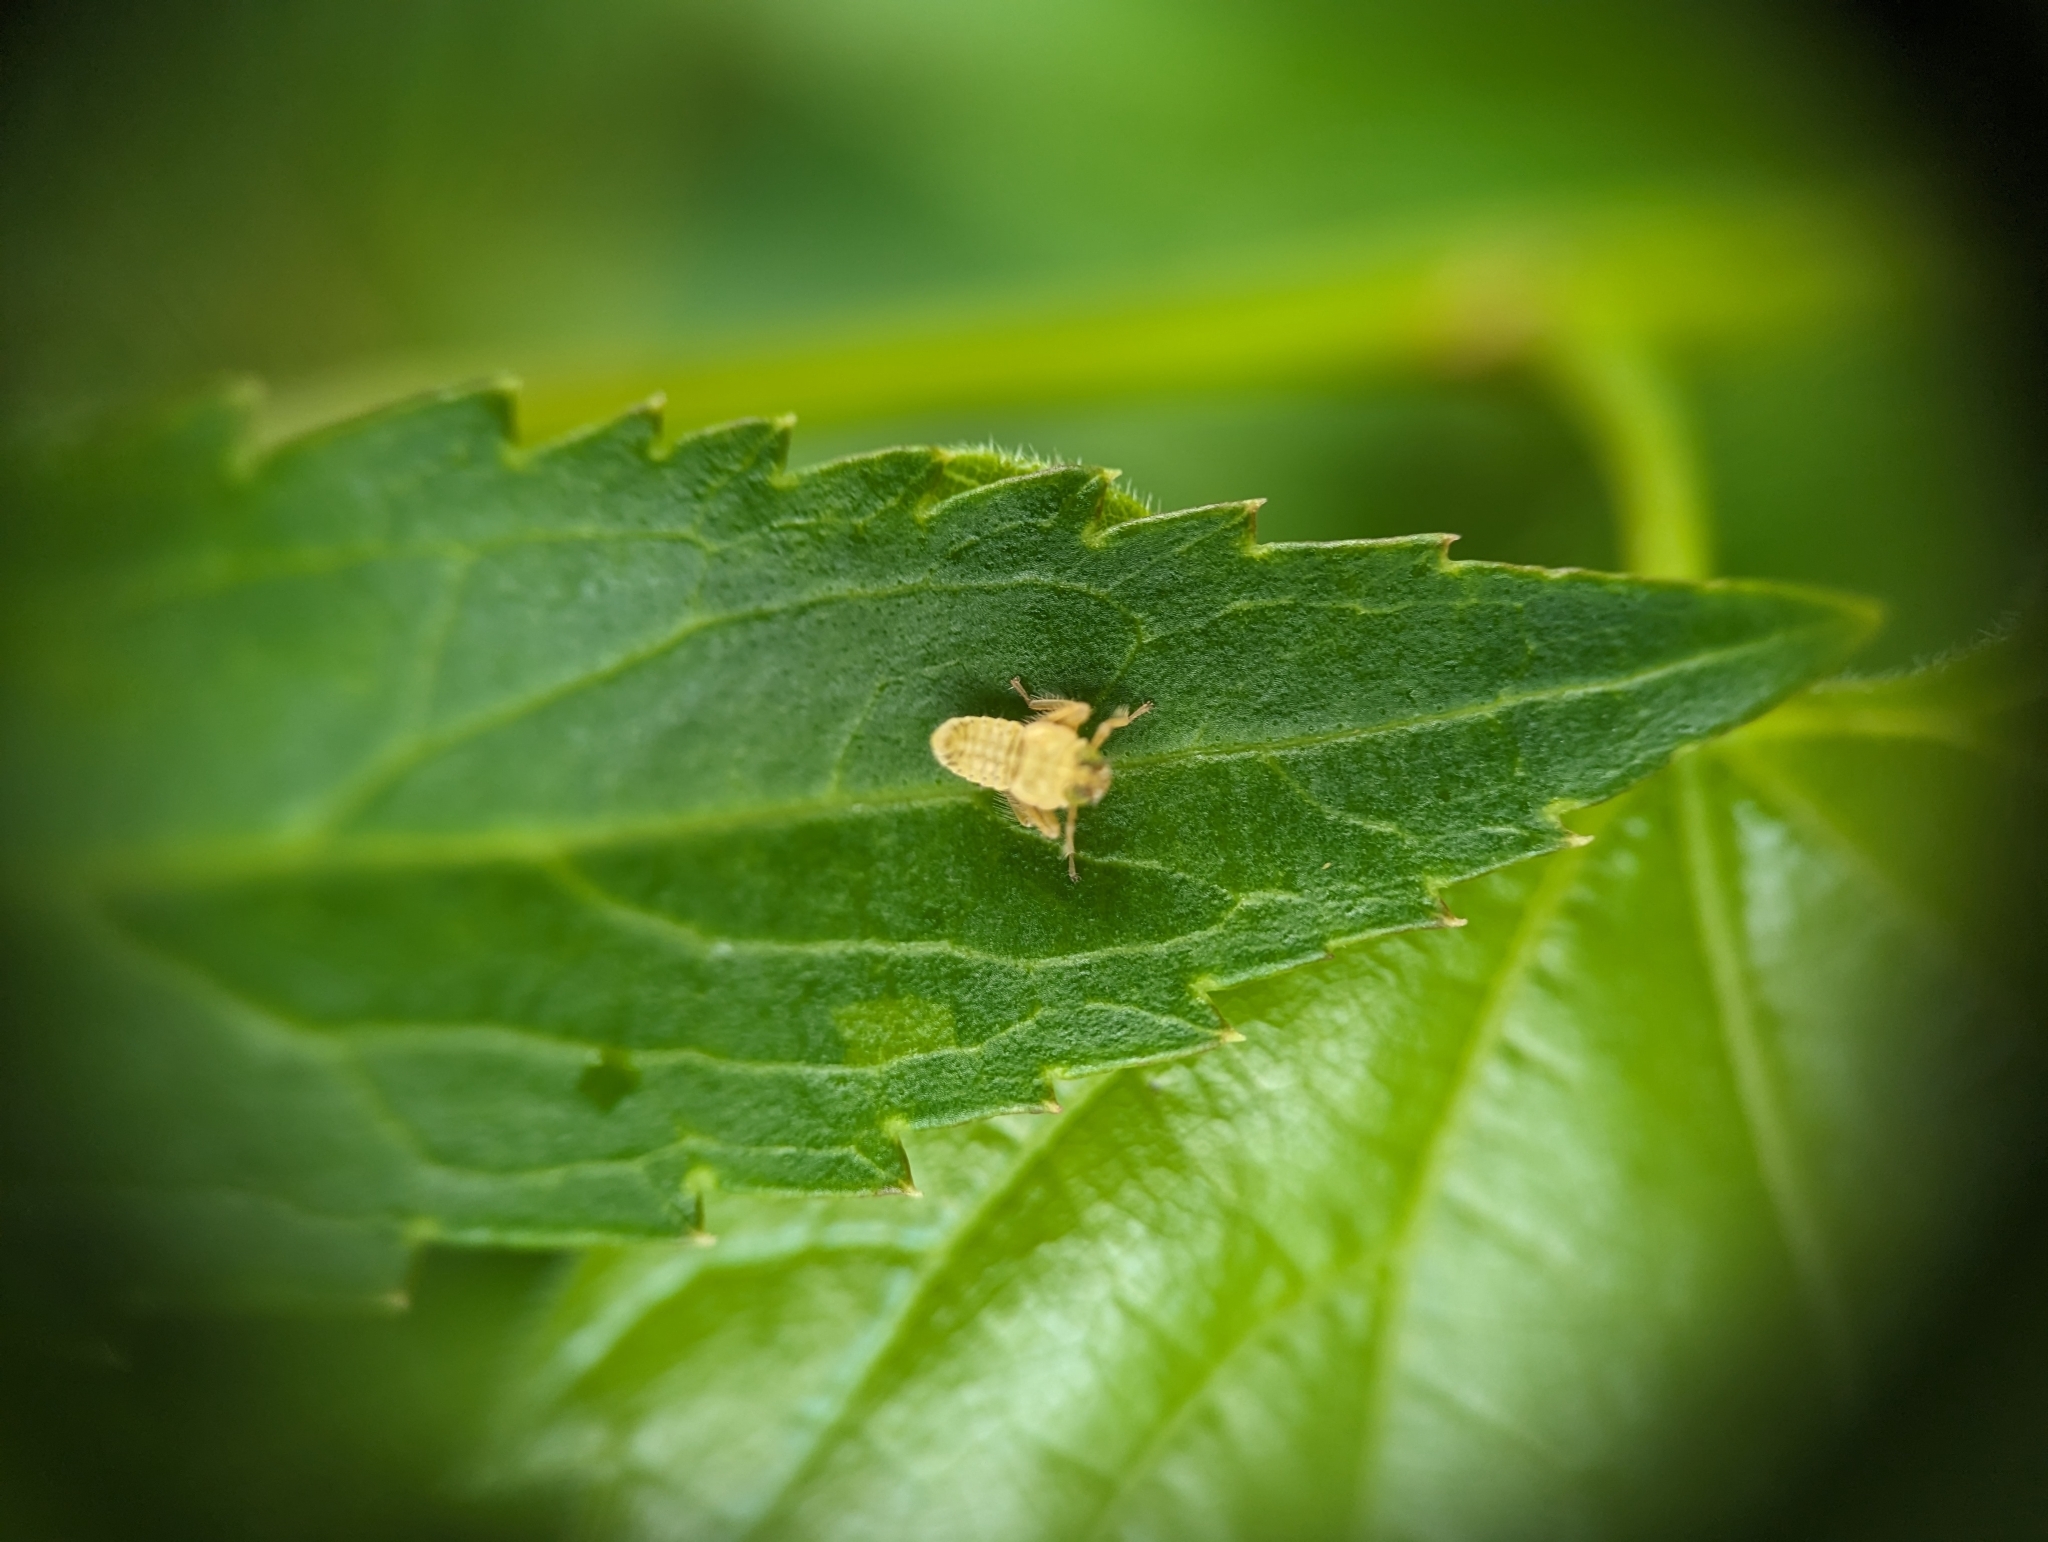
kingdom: Animalia
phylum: Arthropoda
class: Insecta
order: Hemiptera
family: Cicadellidae
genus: Jikradia
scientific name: Jikradia olitoria
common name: Coppery leafhopper
